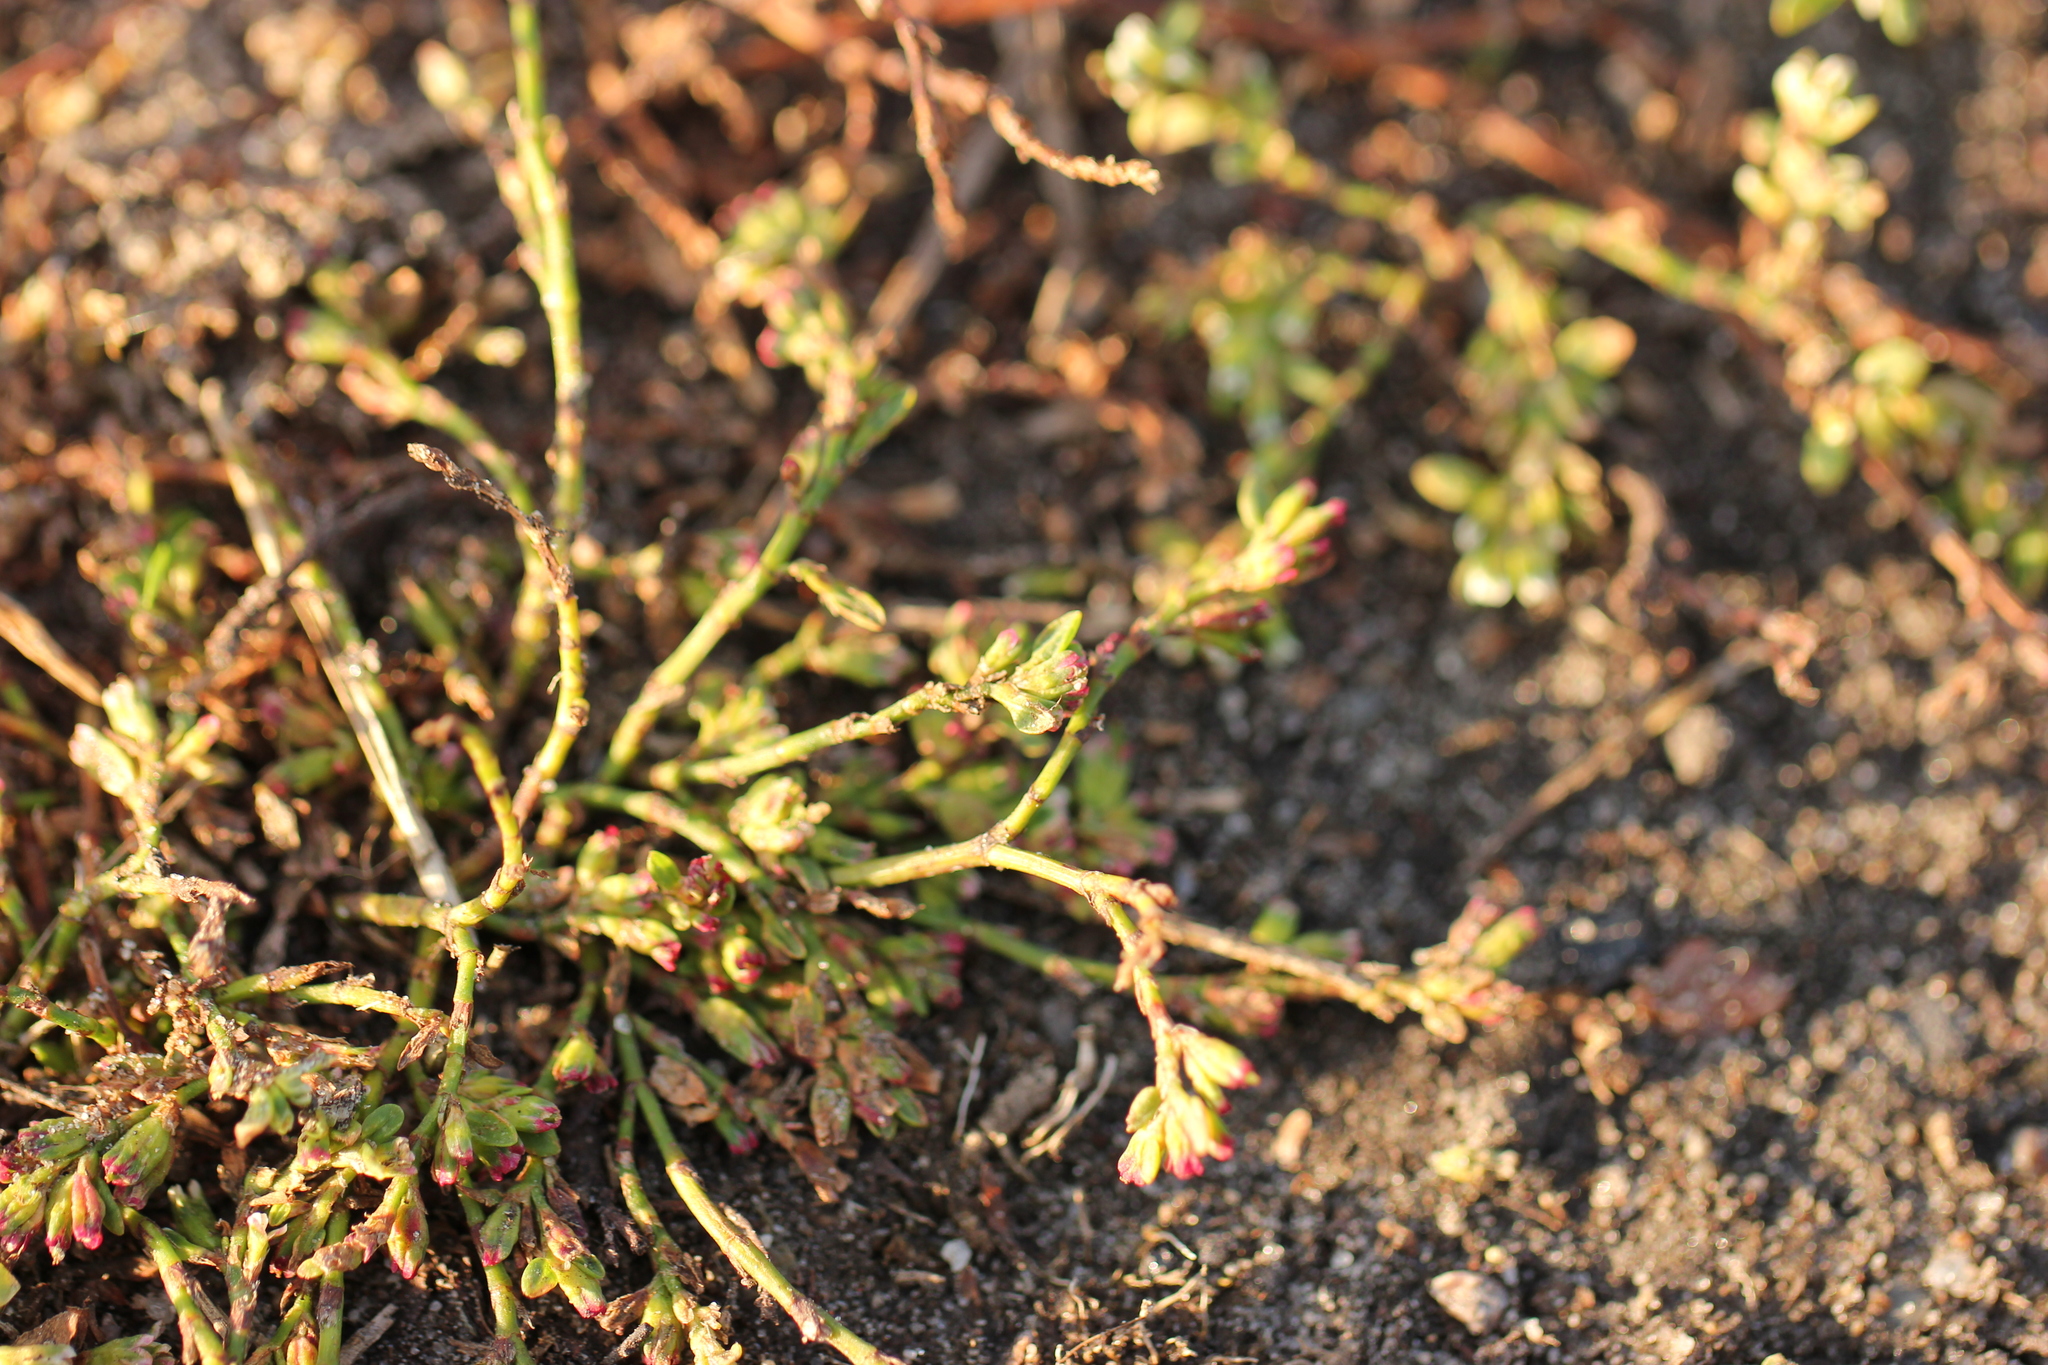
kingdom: Plantae
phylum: Tracheophyta
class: Magnoliopsida
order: Caryophyllales
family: Polygonaceae
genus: Polygonum
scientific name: Polygonum aviculare
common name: Prostrate knotweed
